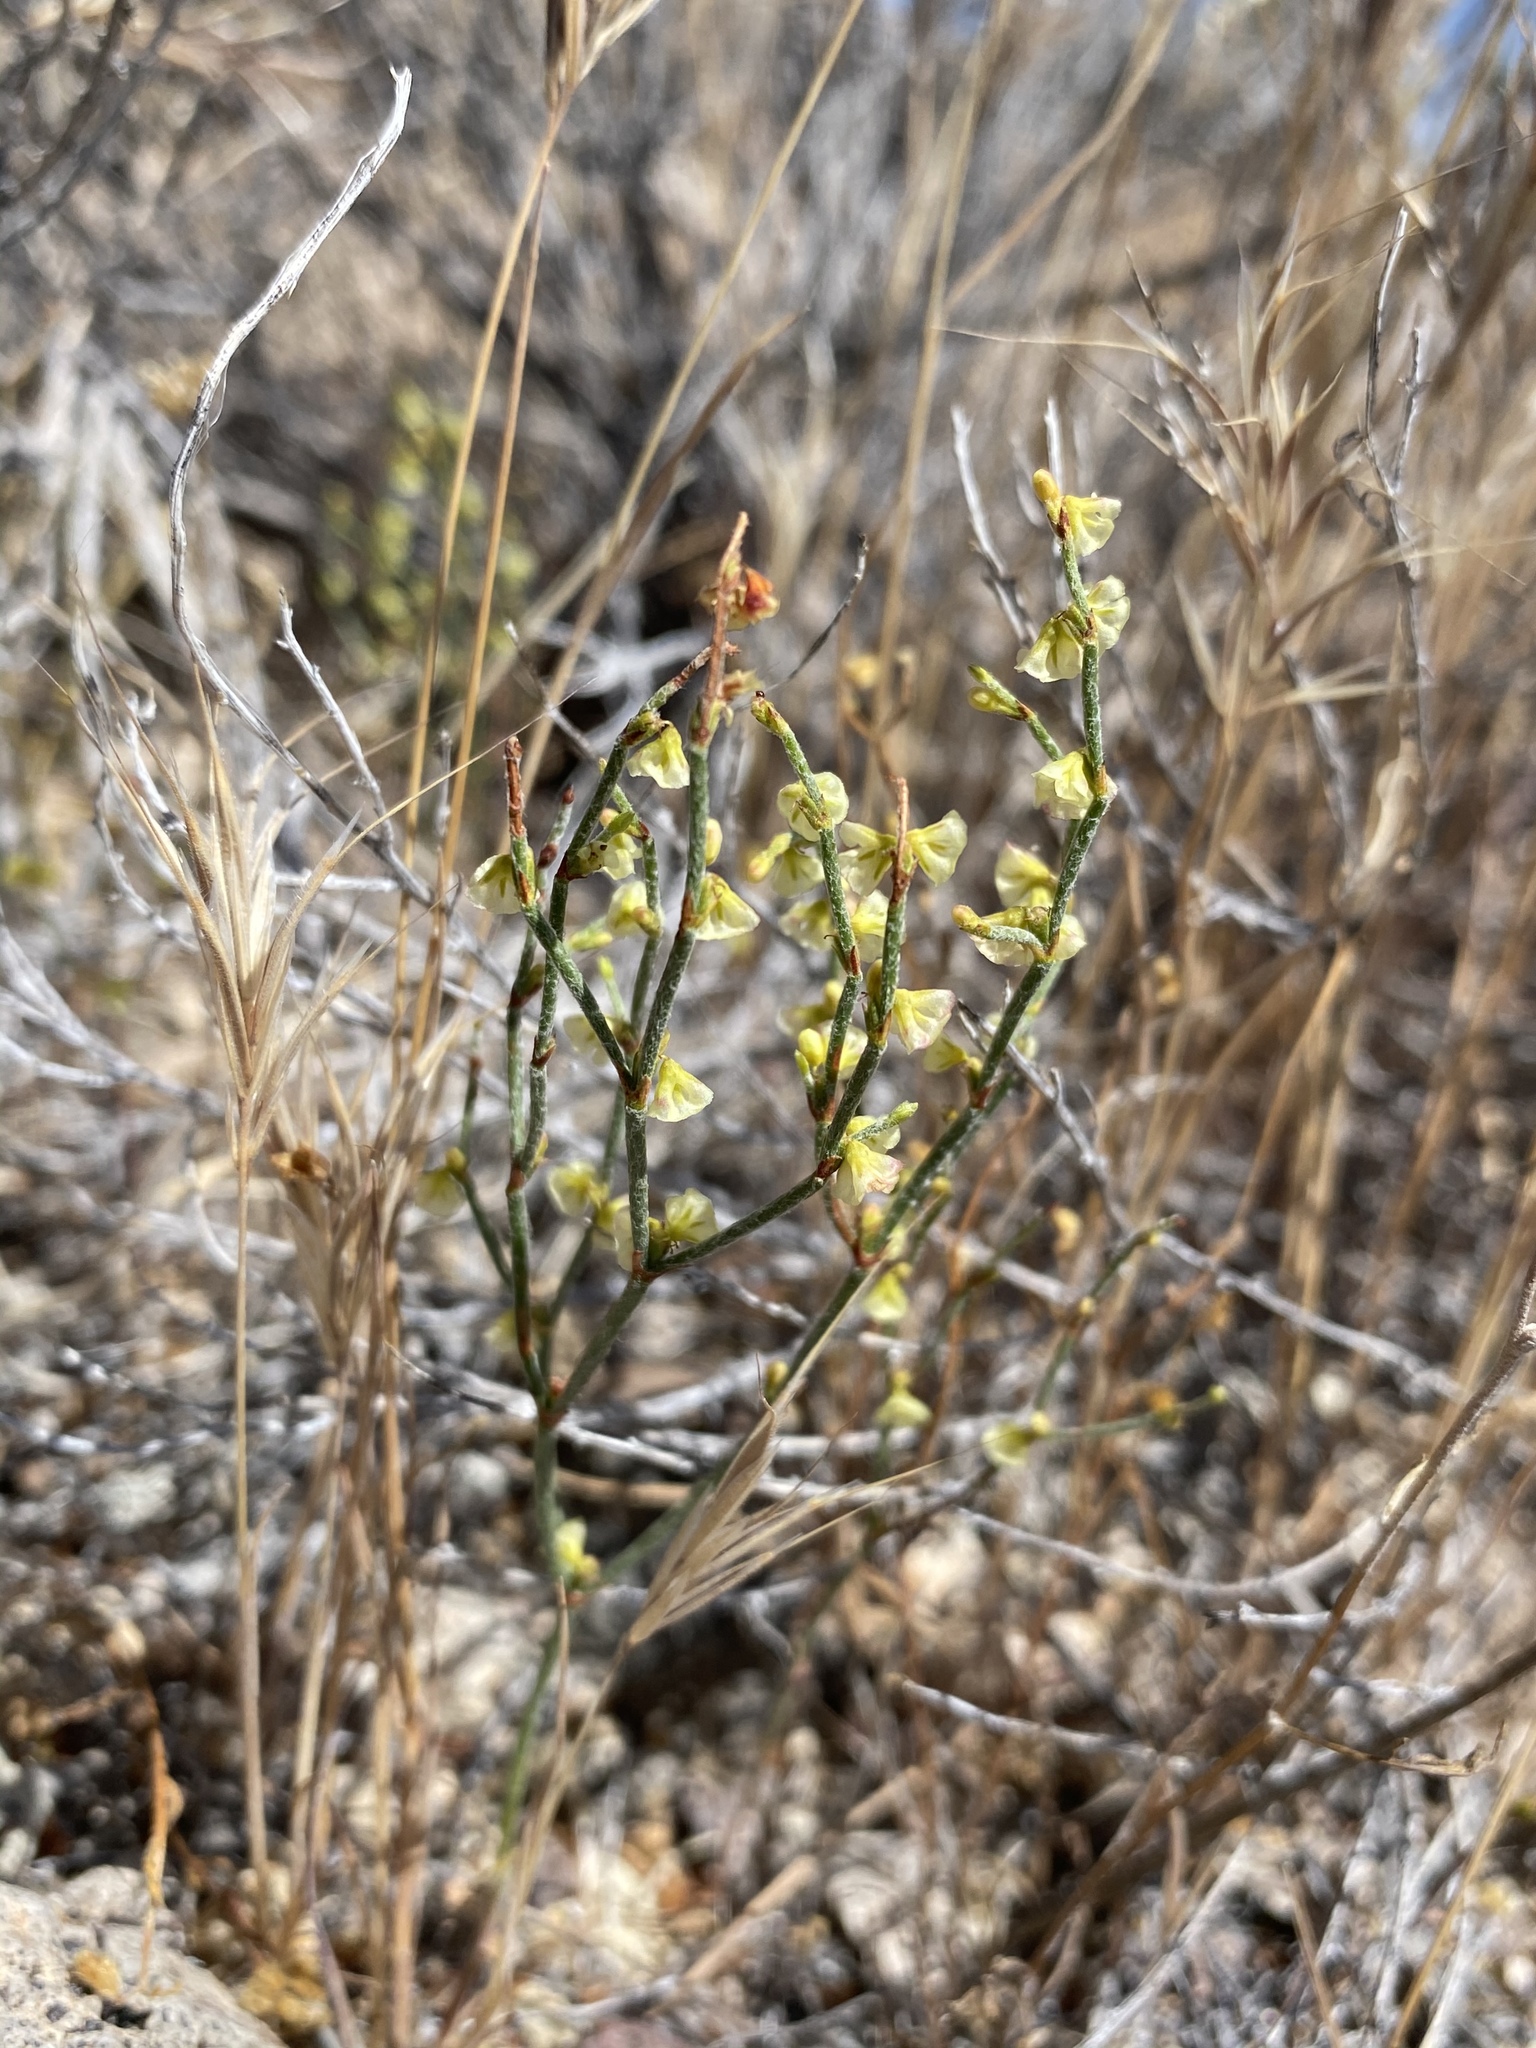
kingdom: Plantae
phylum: Tracheophyta
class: Magnoliopsida
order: Caryophyllales
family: Polygonaceae
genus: Eriogonum
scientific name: Eriogonum nidularium
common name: Bird's-nest wild buckwheat
